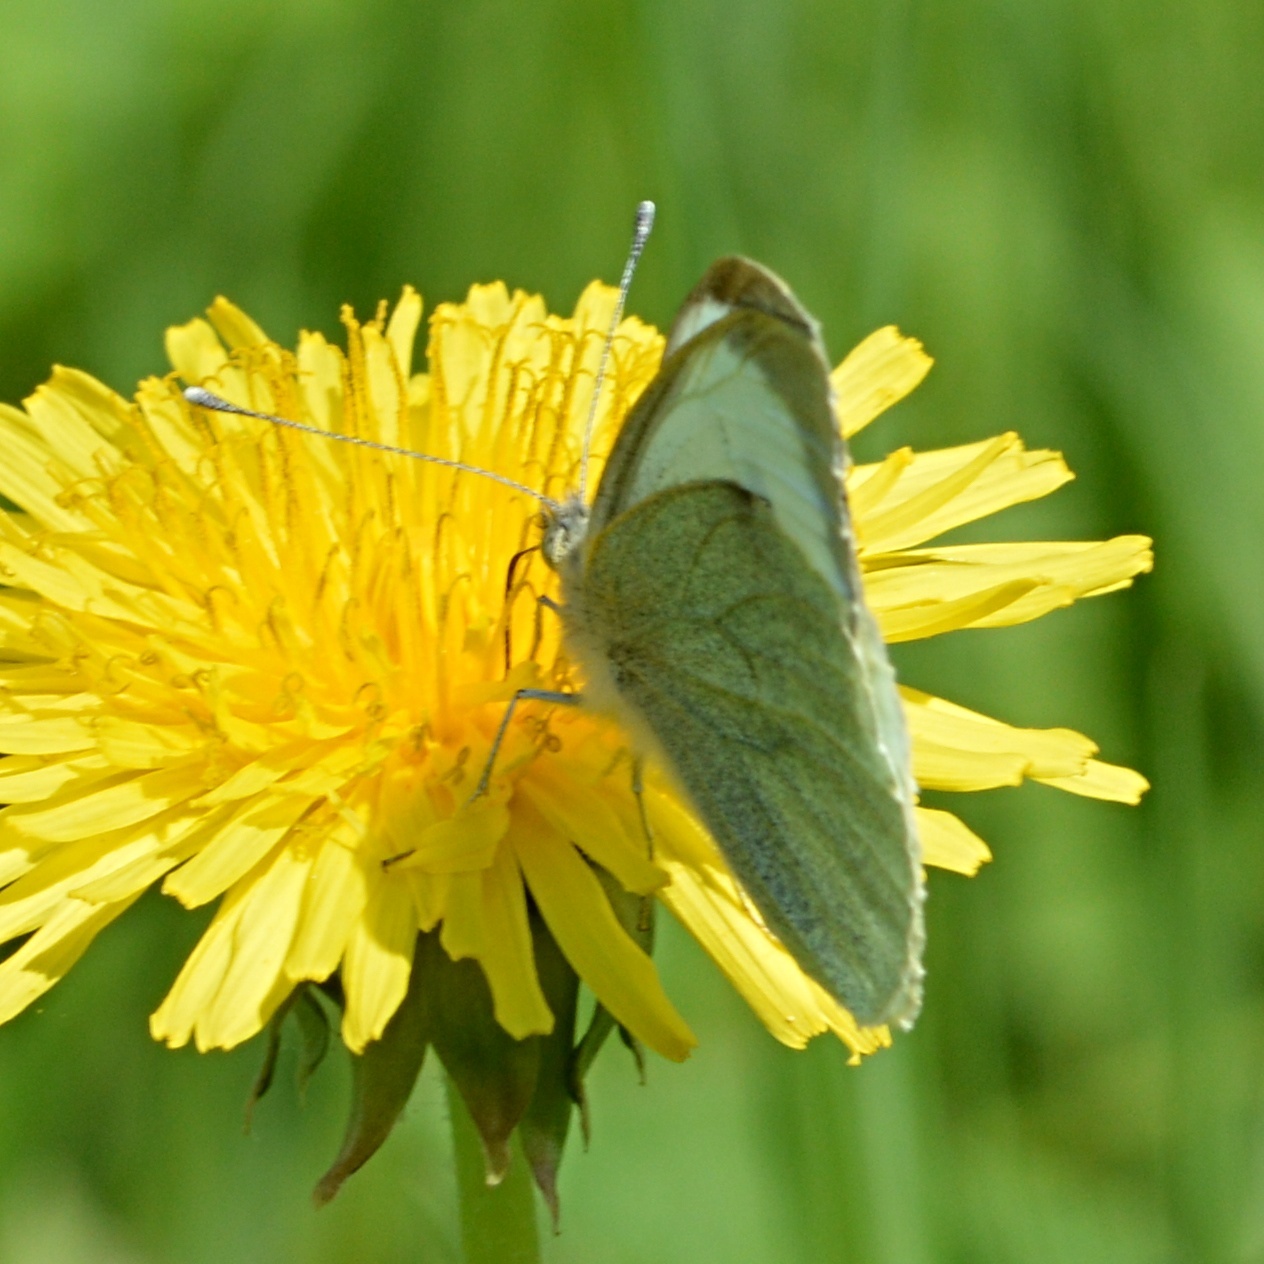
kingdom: Animalia
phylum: Arthropoda
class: Insecta
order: Lepidoptera
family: Pieridae
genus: Pieris
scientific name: Pieris brassicae
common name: Large white
